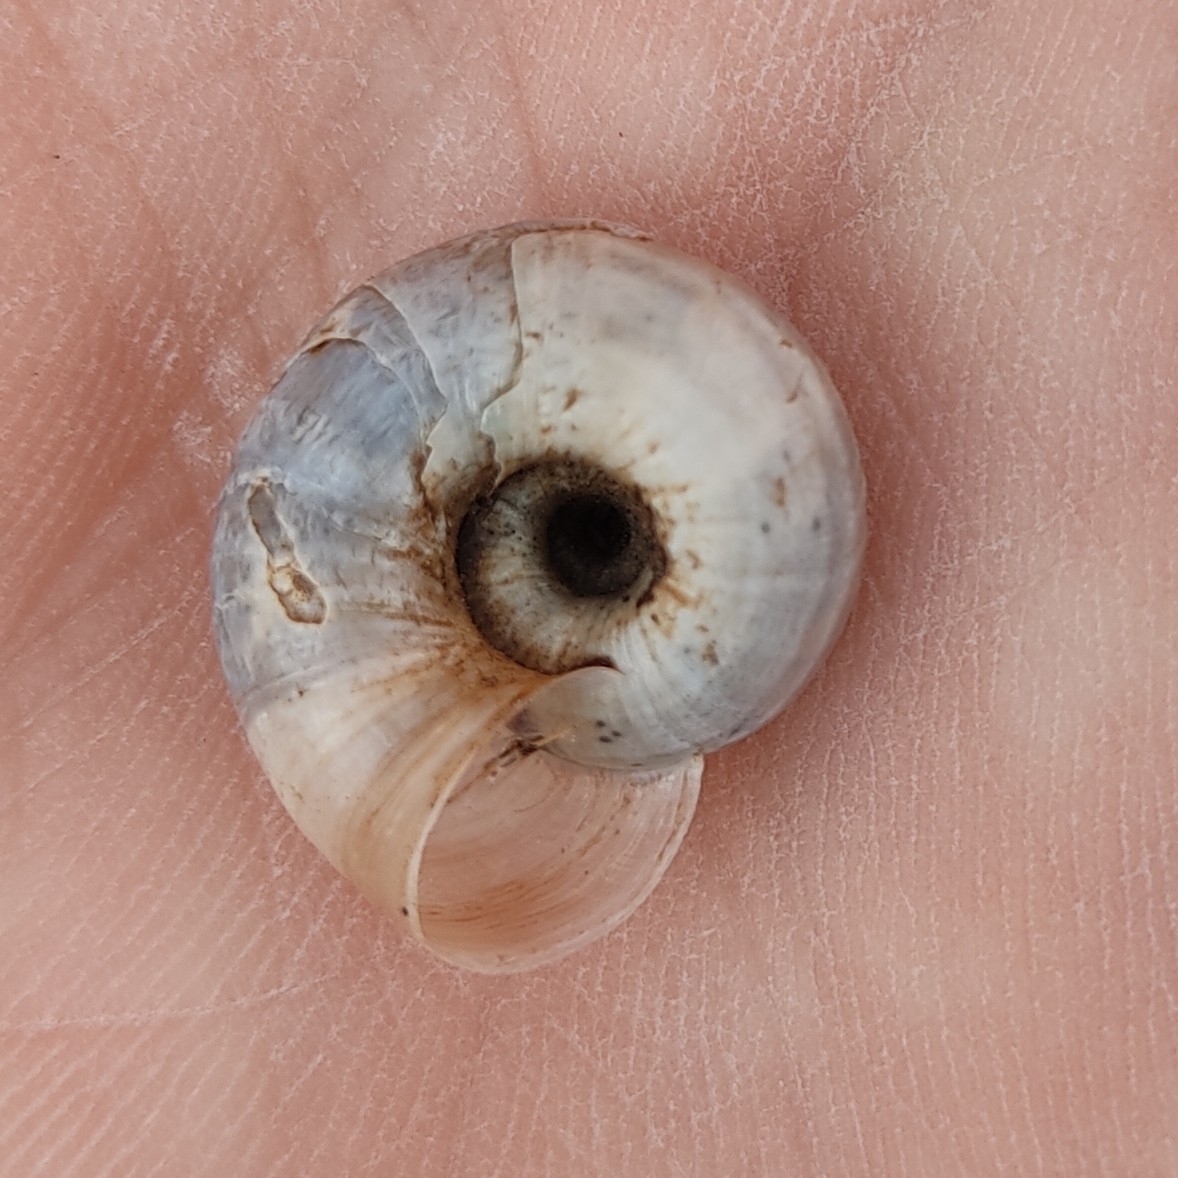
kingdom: Animalia
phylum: Mollusca
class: Gastropoda
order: Stylommatophora
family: Geomitridae
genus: Helicella
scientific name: Helicella itala
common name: Heath snail
